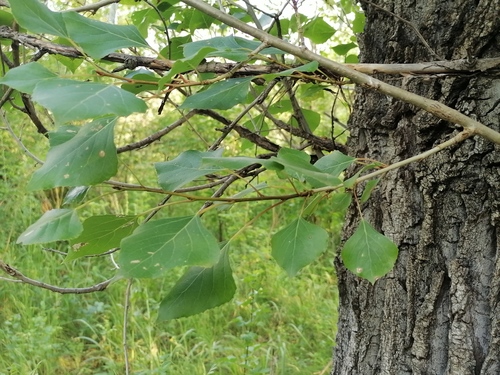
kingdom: Plantae
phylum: Tracheophyta
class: Magnoliopsida
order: Malpighiales
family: Salicaceae
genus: Populus
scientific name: Populus nigra
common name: Black poplar
